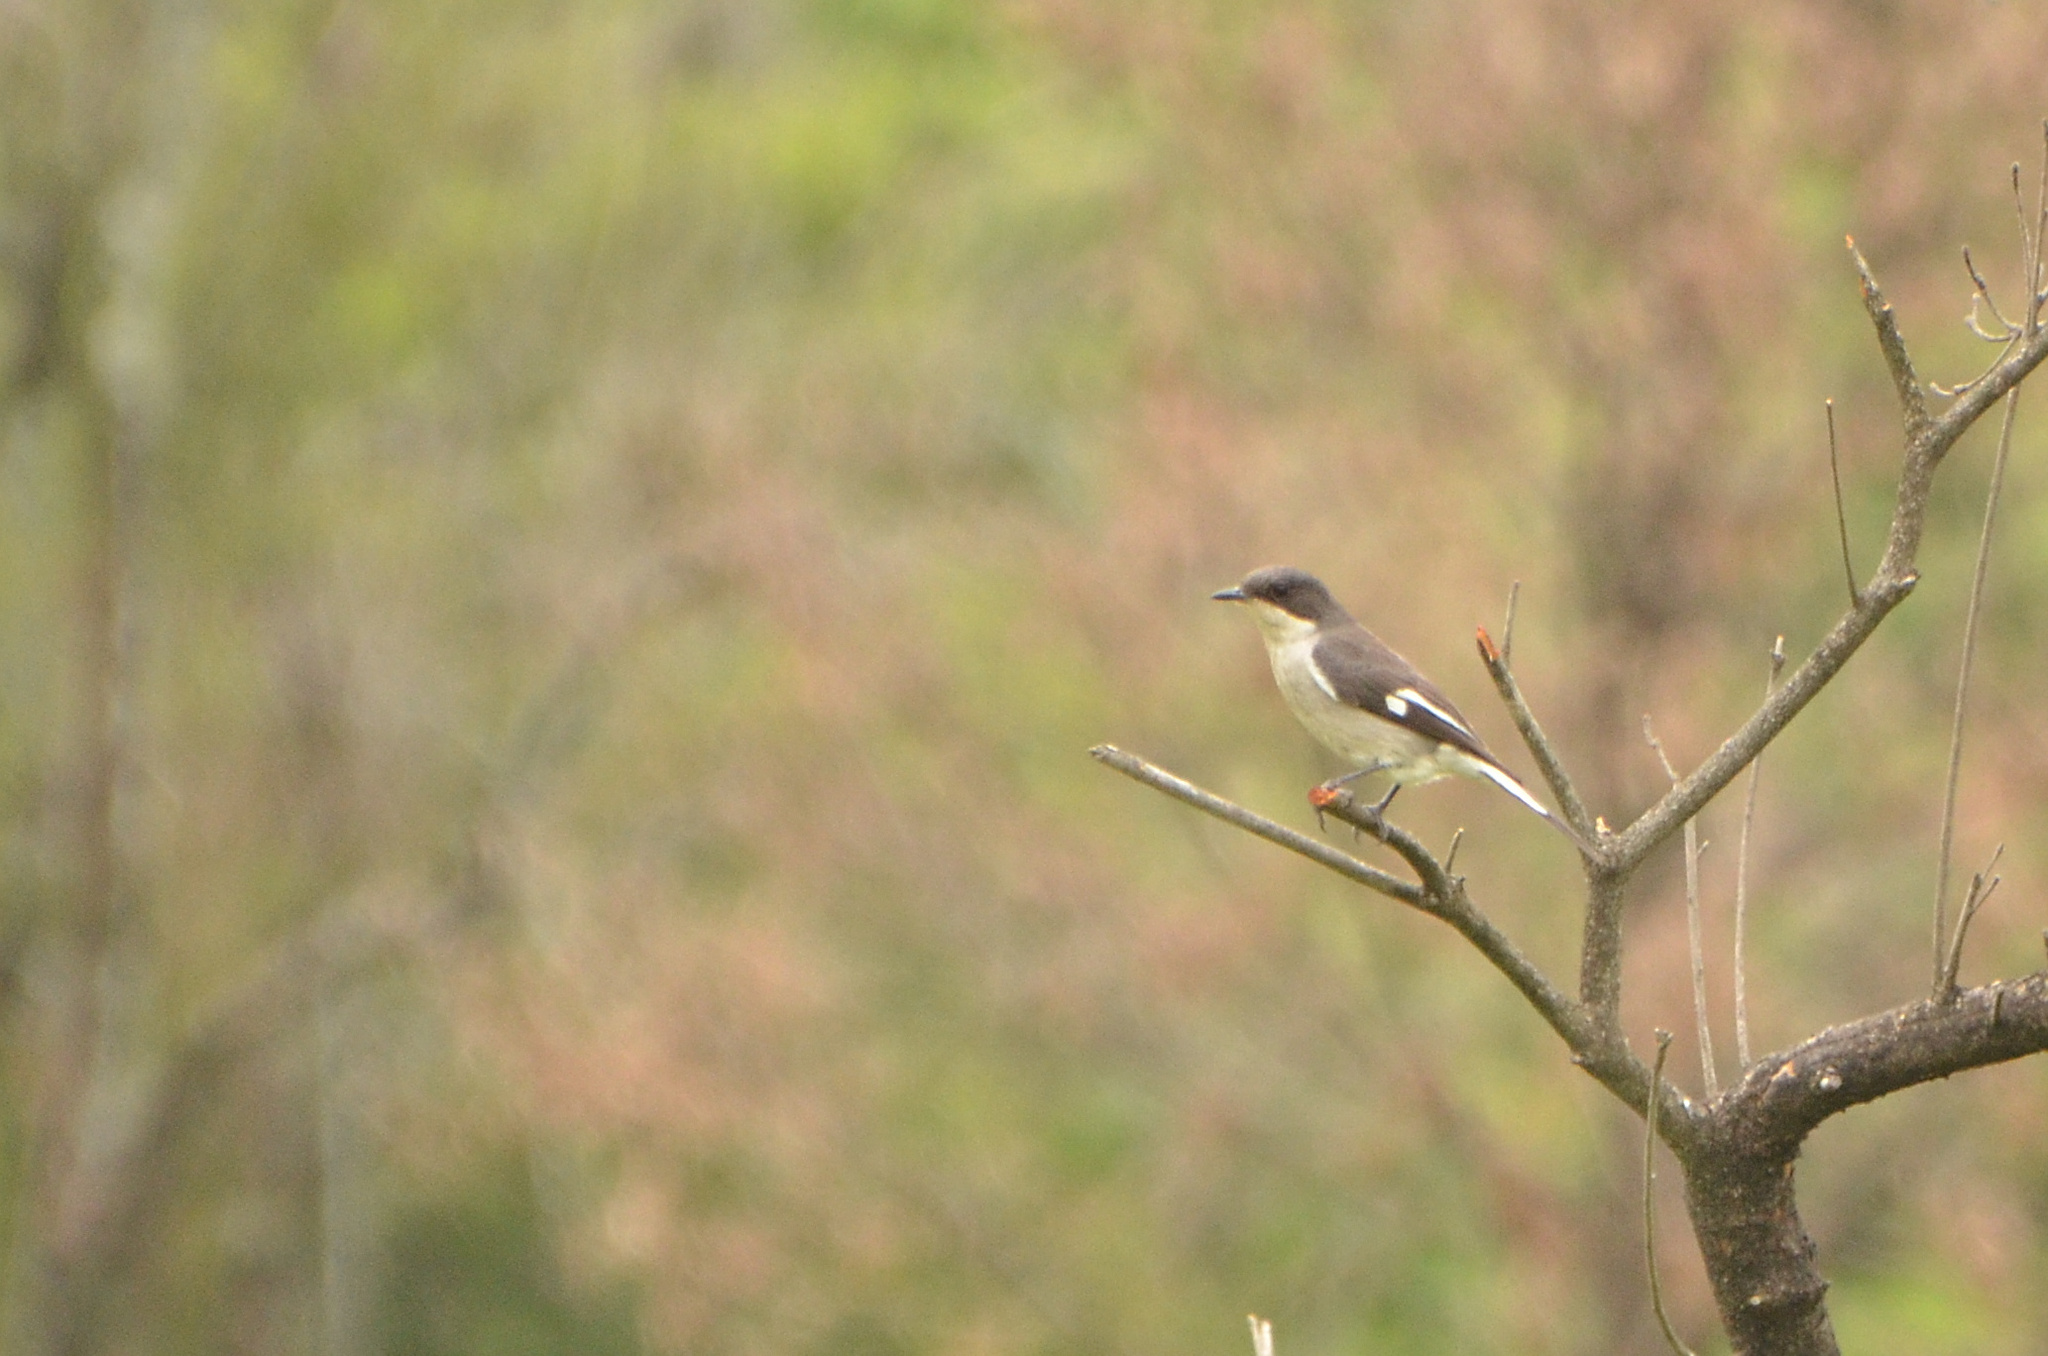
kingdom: Animalia
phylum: Chordata
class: Aves
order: Passeriformes
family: Muscicapidae
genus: Sigelus
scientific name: Sigelus silens
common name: Fiscal flycatcher
